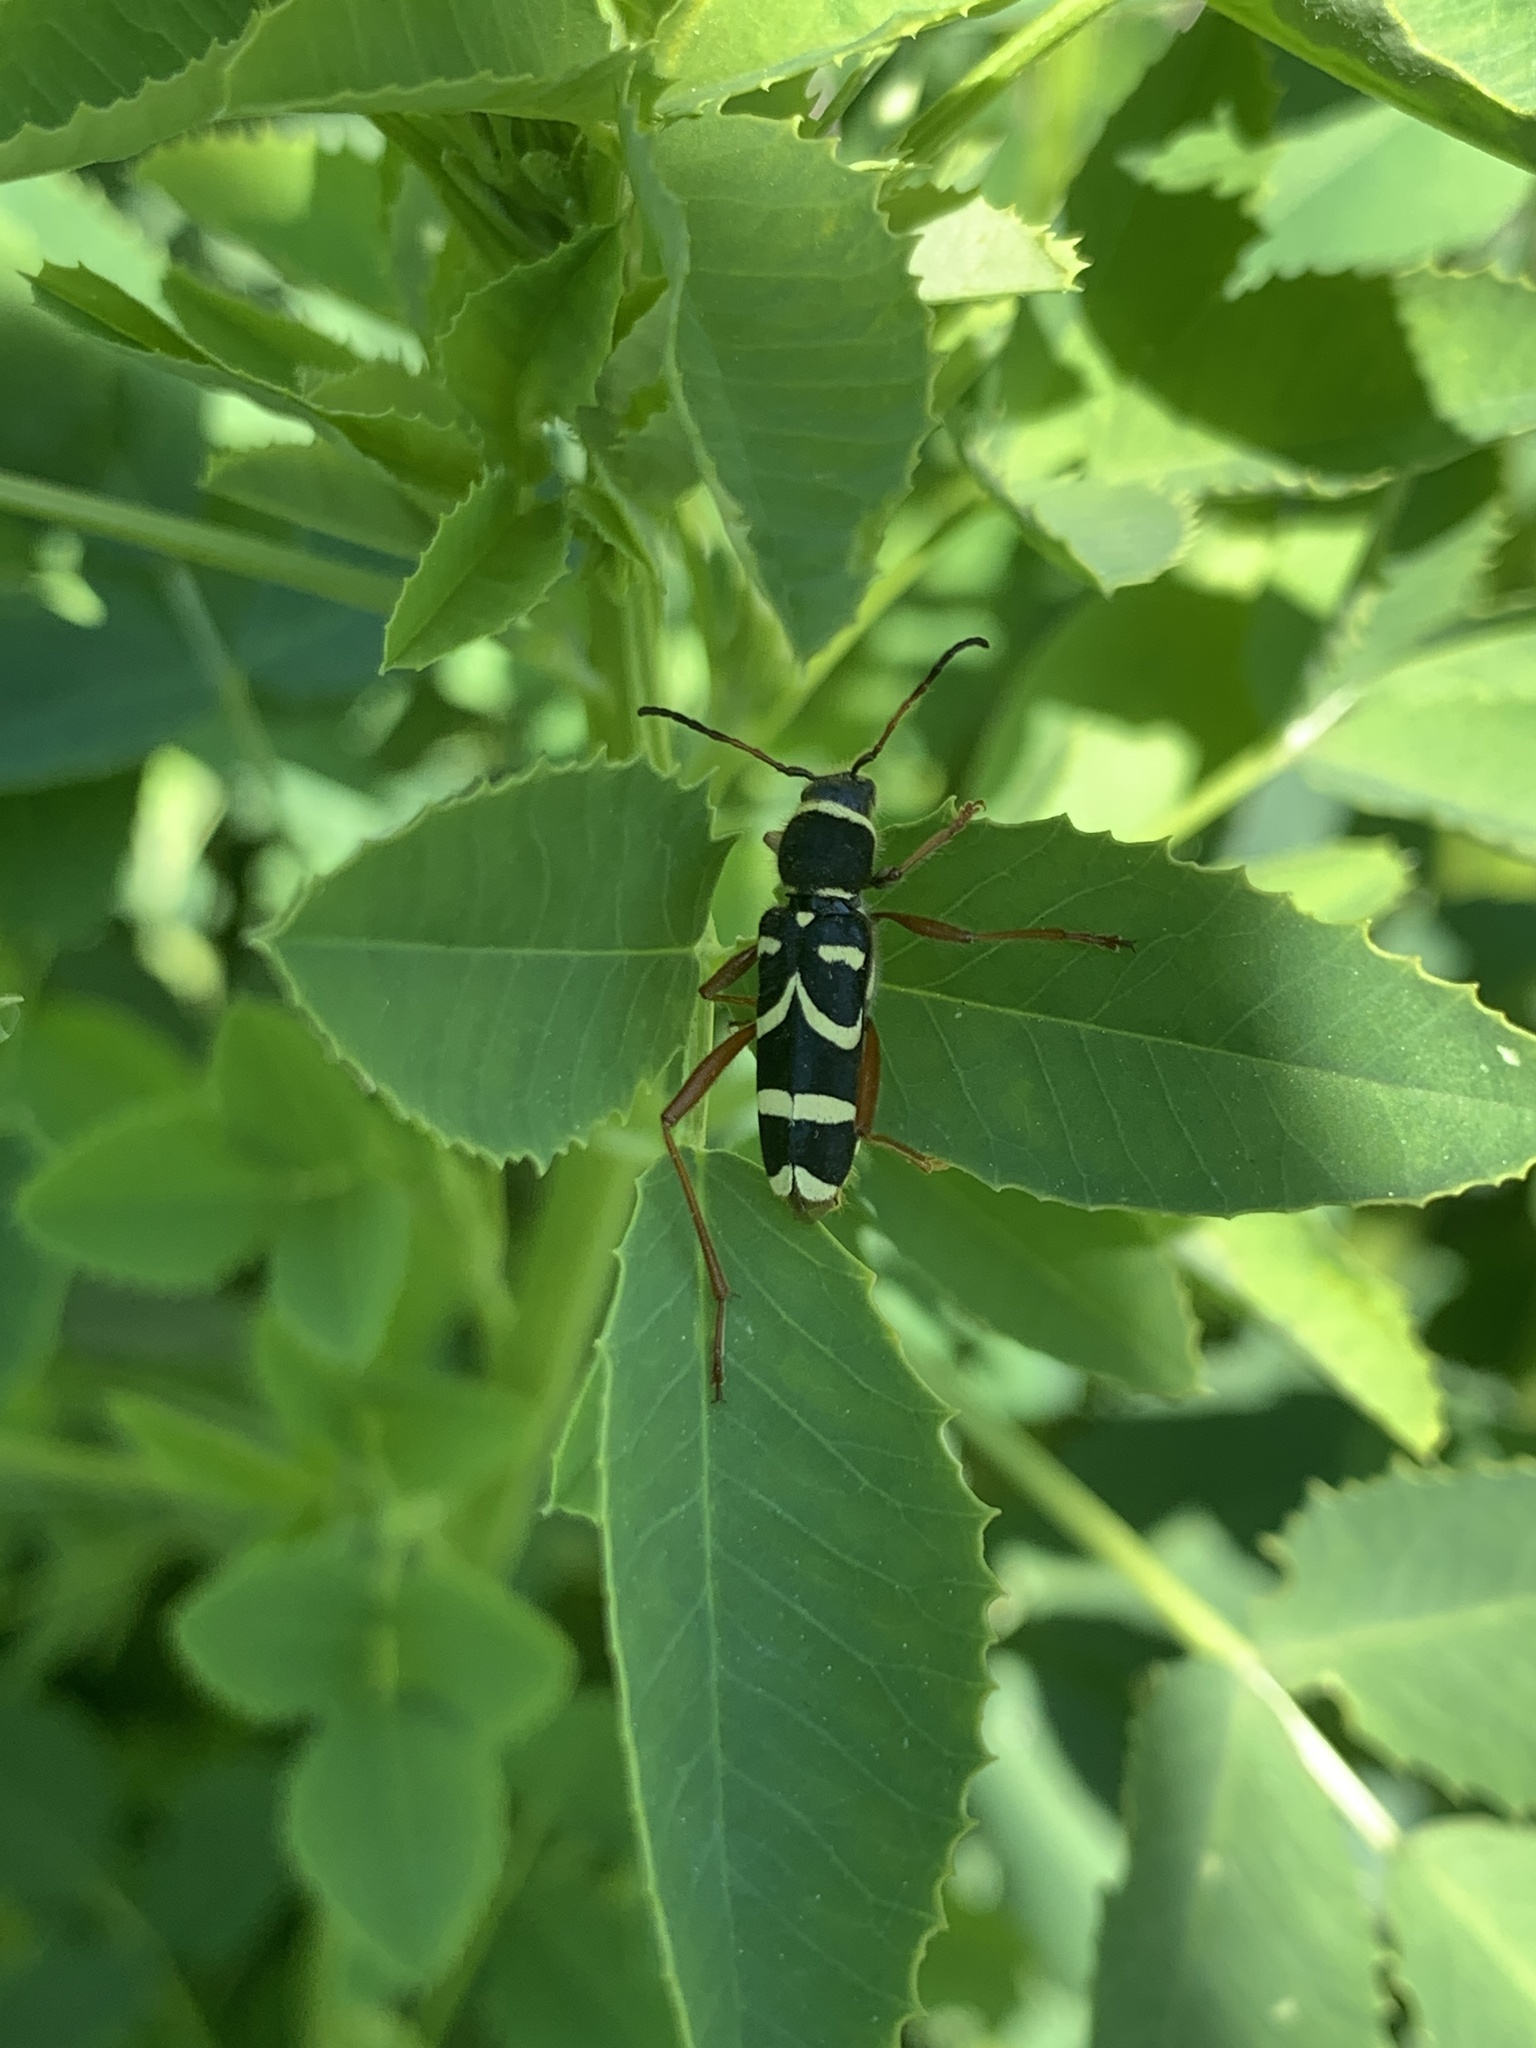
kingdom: Animalia
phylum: Arthropoda
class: Insecta
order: Coleoptera
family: Cerambycidae
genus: Clytus
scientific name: Clytus arietis
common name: Wasp beetle
